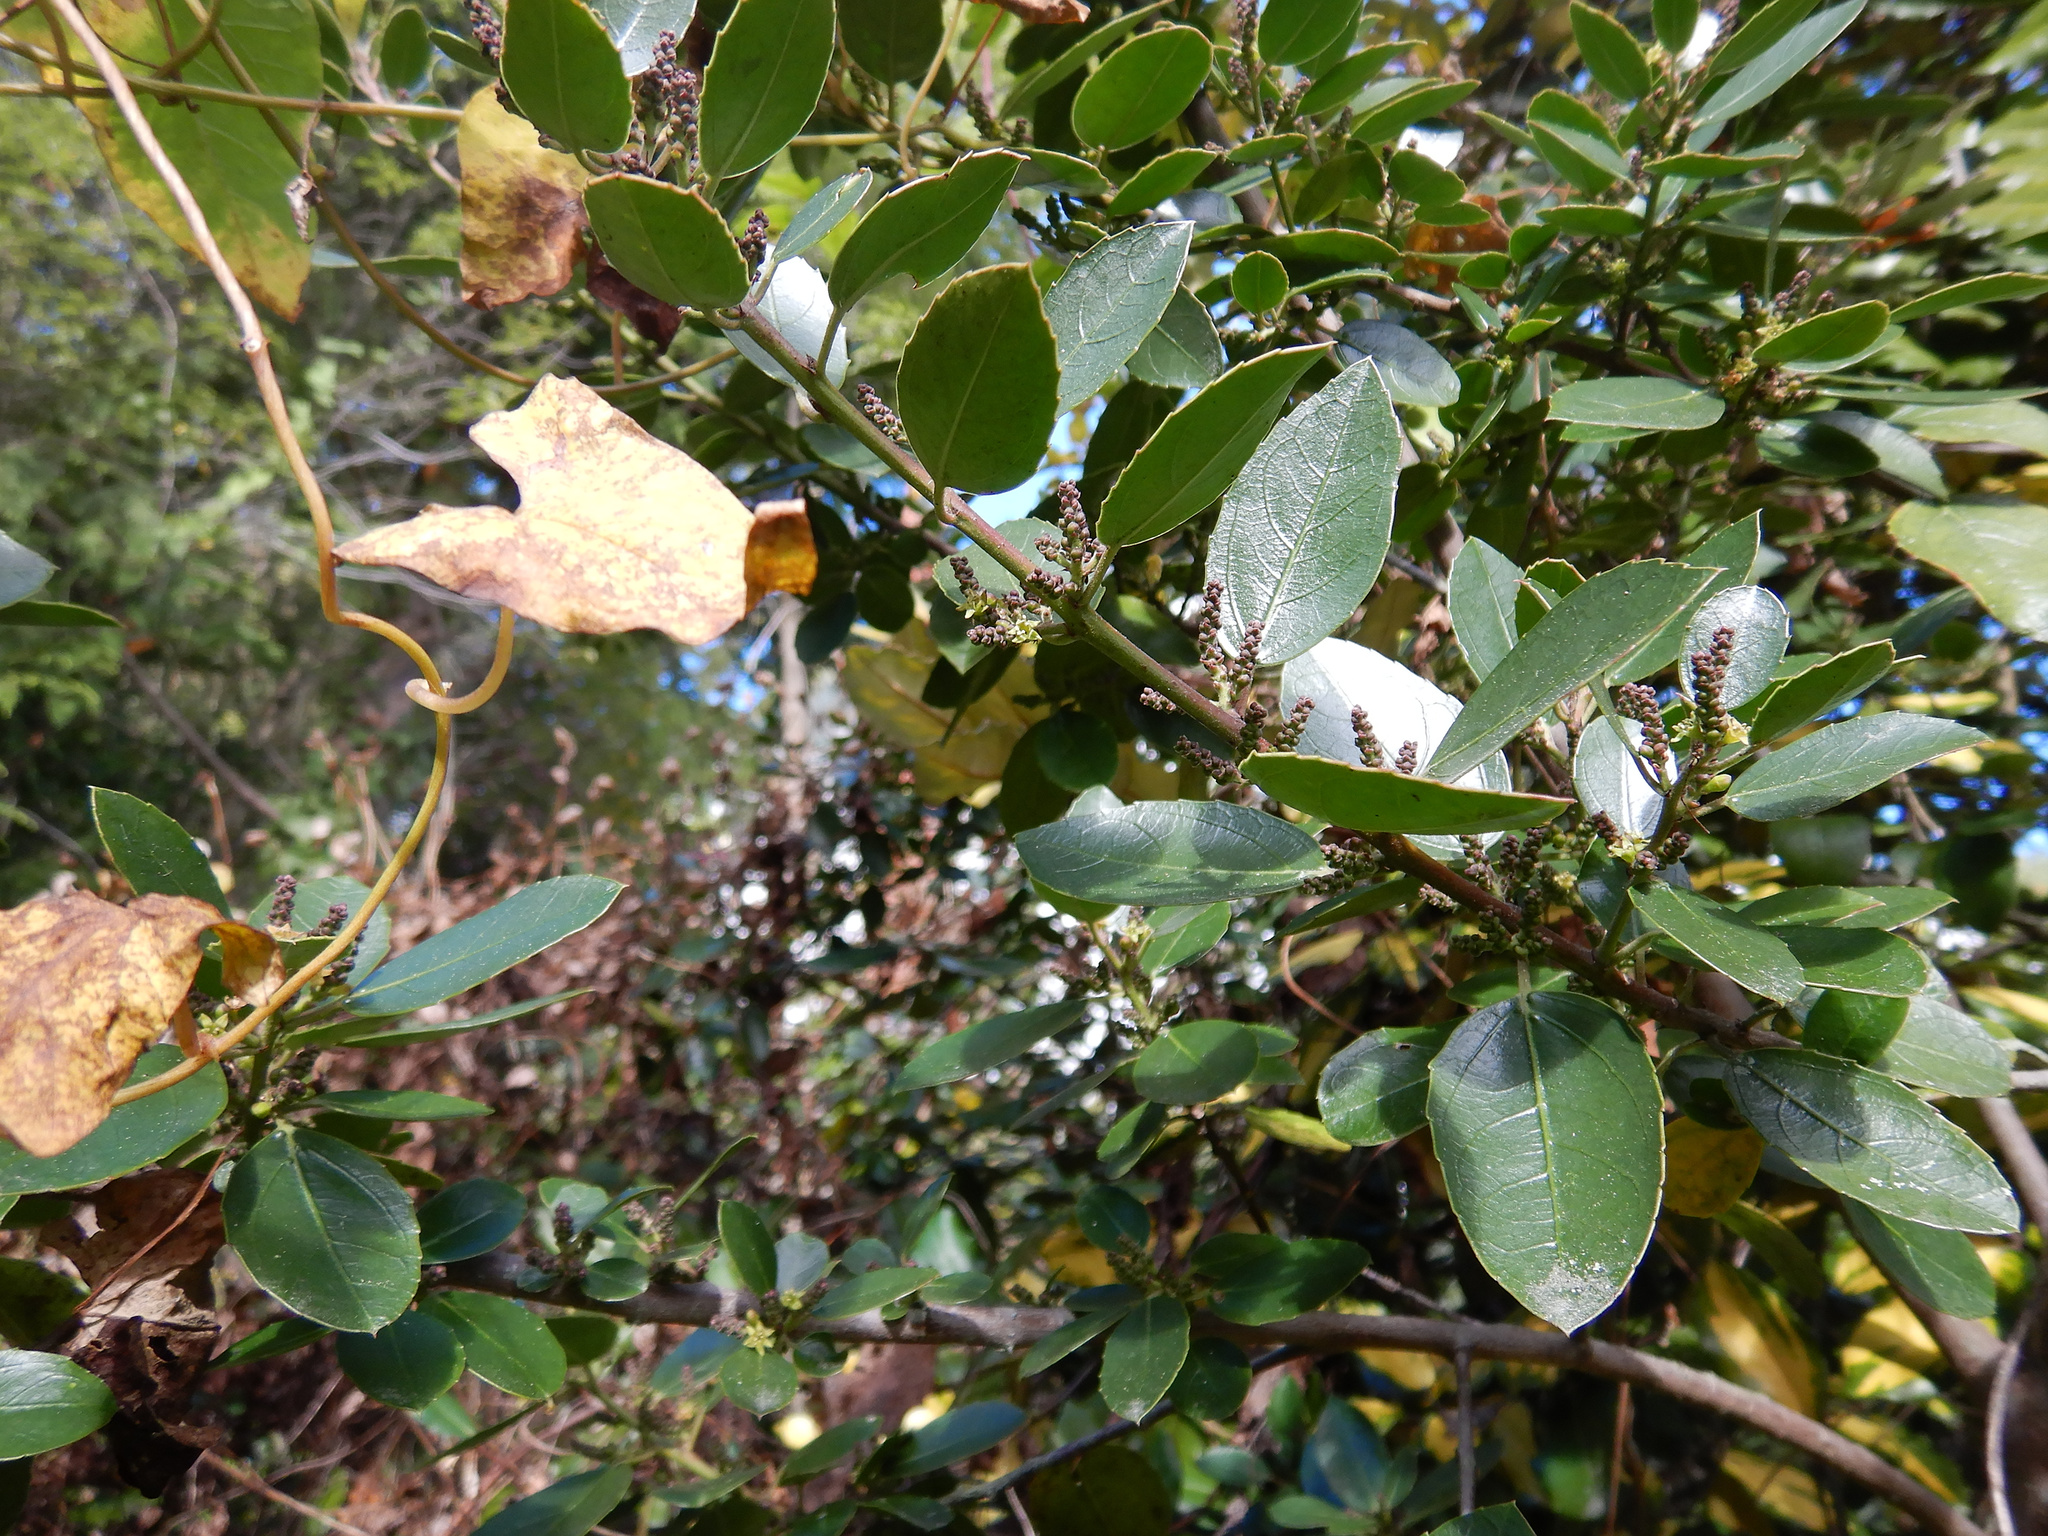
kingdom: Plantae
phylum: Tracheophyta
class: Magnoliopsida
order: Rosales
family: Rhamnaceae
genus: Rhamnus
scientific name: Rhamnus alaternus
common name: Mediterranean buckthorn
